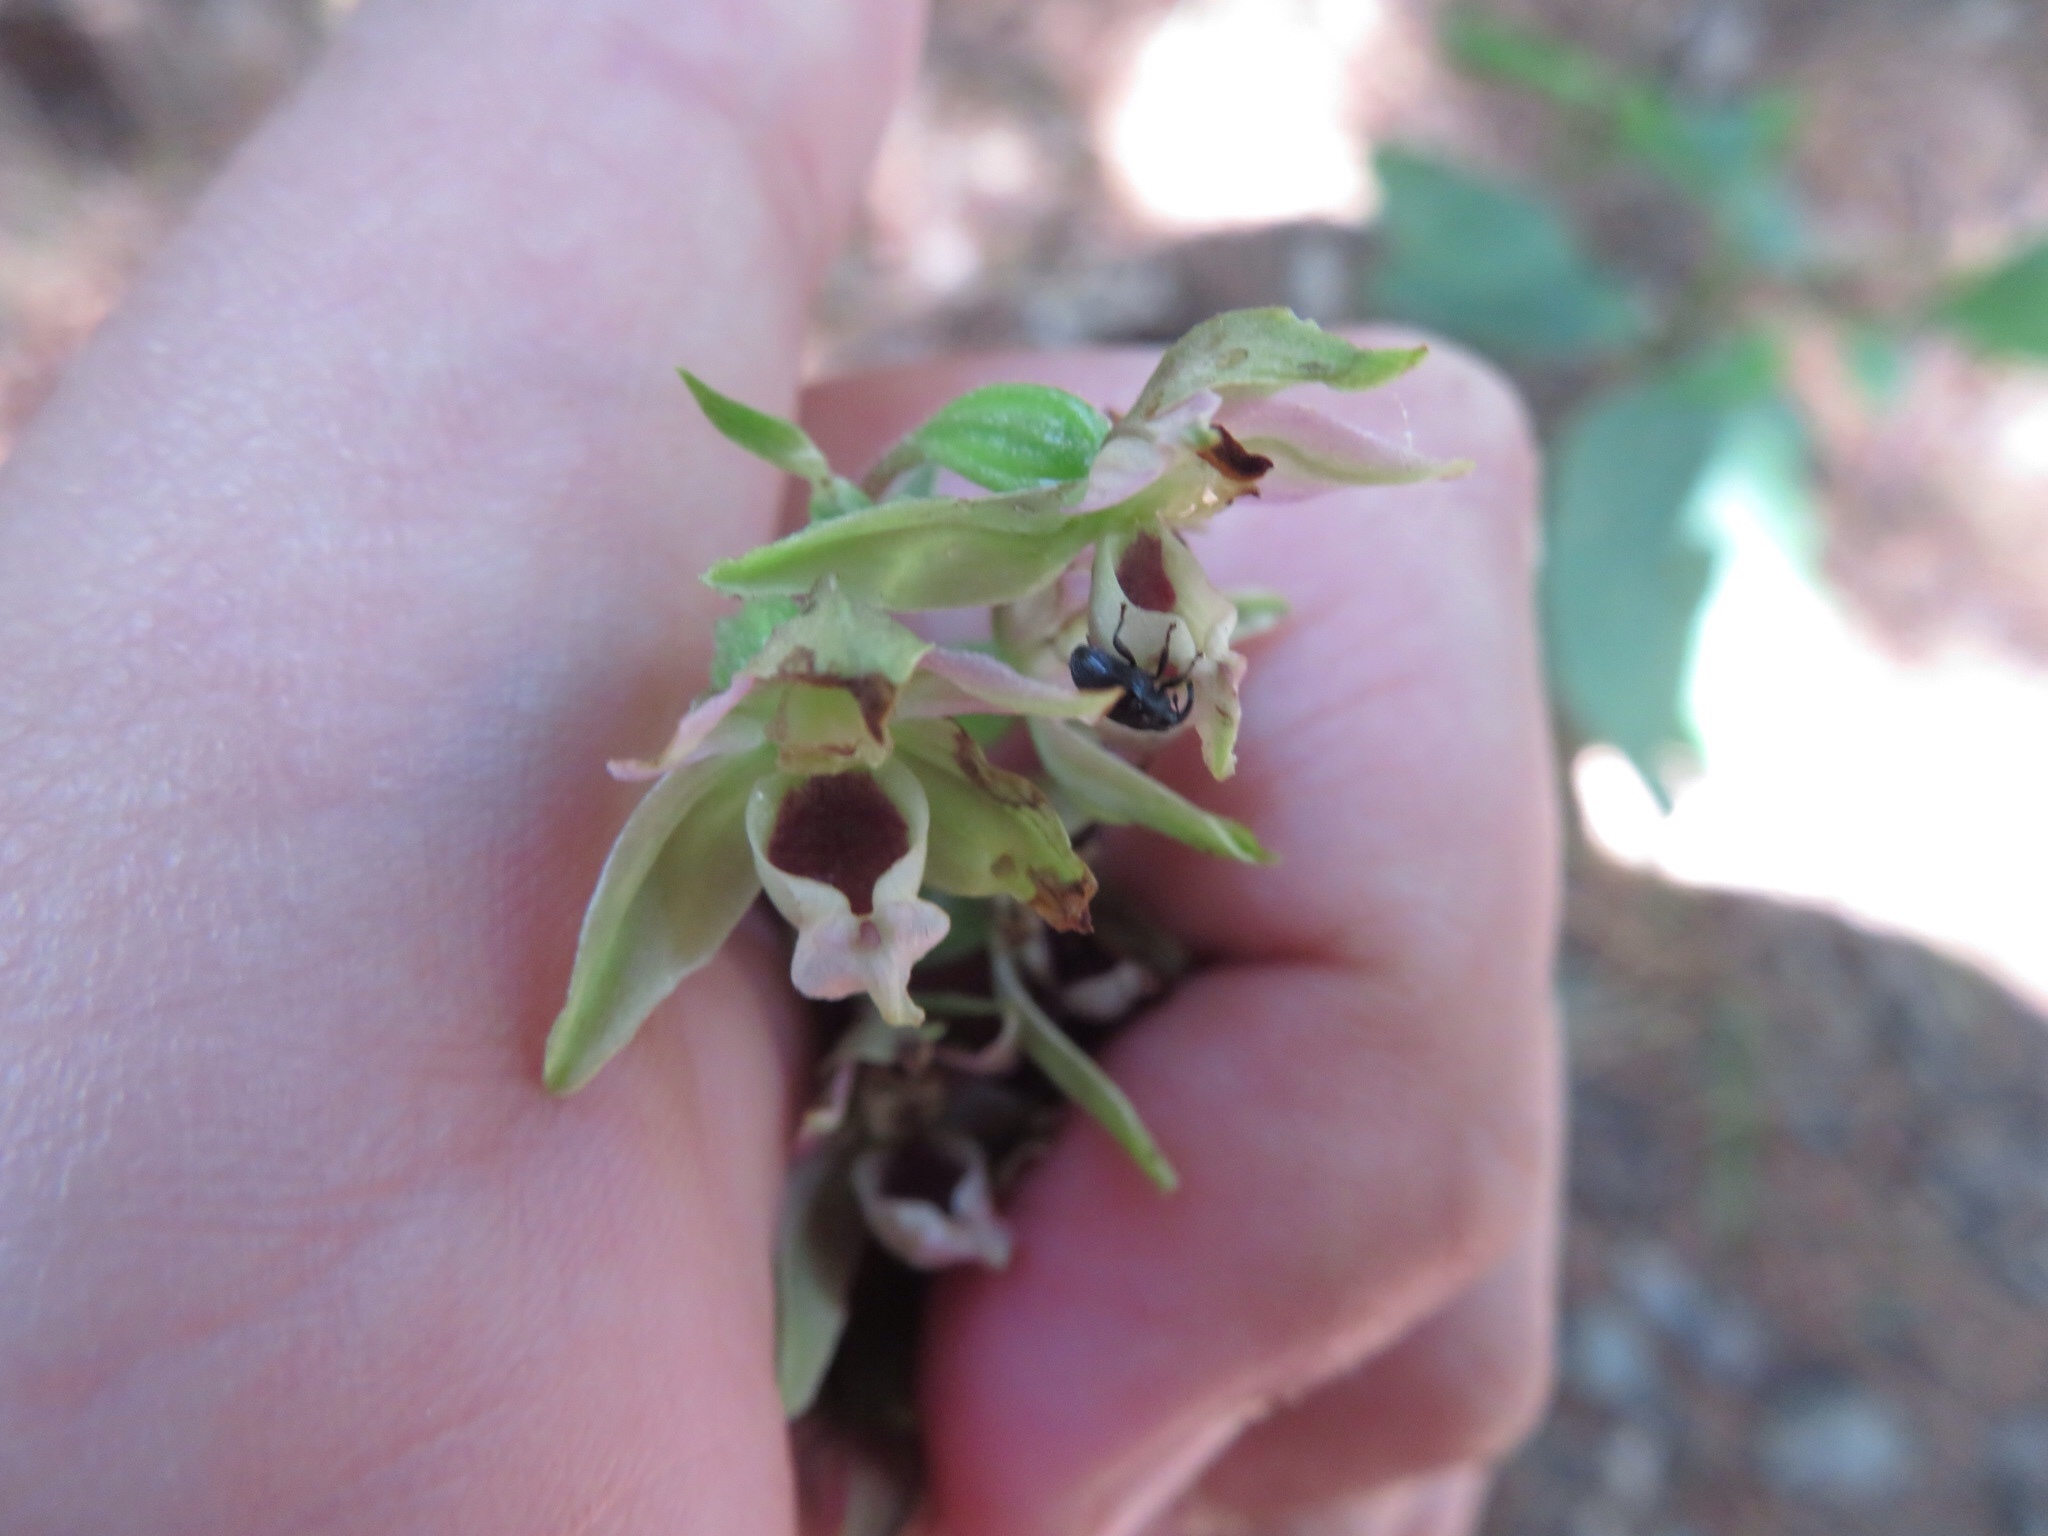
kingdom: Plantae
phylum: Tracheophyta
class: Liliopsida
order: Asparagales
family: Orchidaceae
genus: Epipactis
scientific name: Epipactis helleborine
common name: Broad-leaved helleborine
